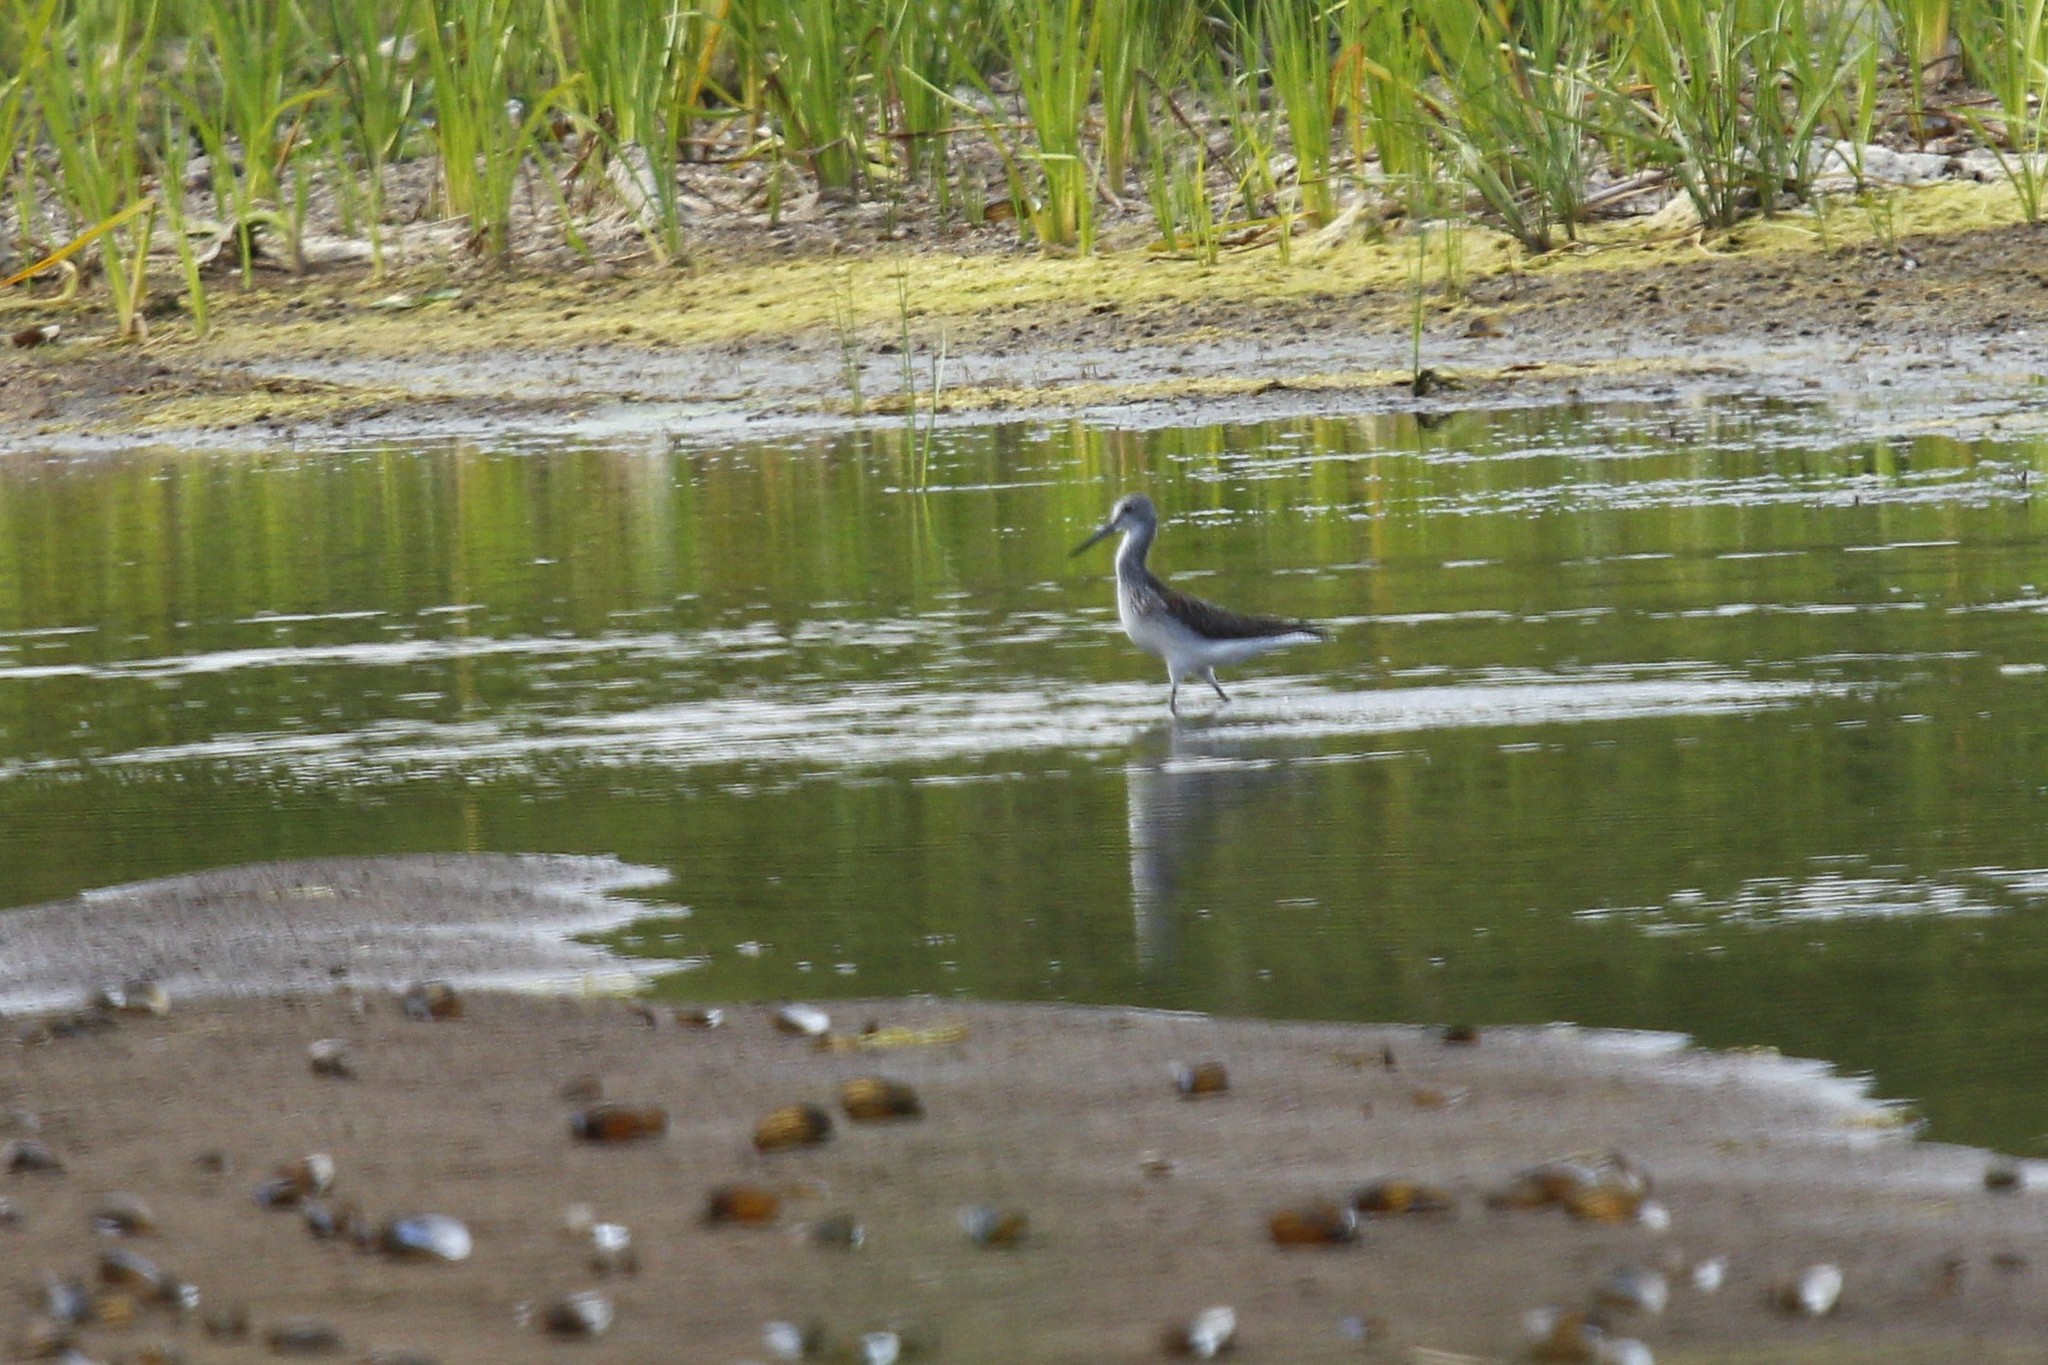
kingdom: Animalia
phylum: Chordata
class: Aves
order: Charadriiformes
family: Scolopacidae
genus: Tringa
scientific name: Tringa nebularia
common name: Common greenshank
